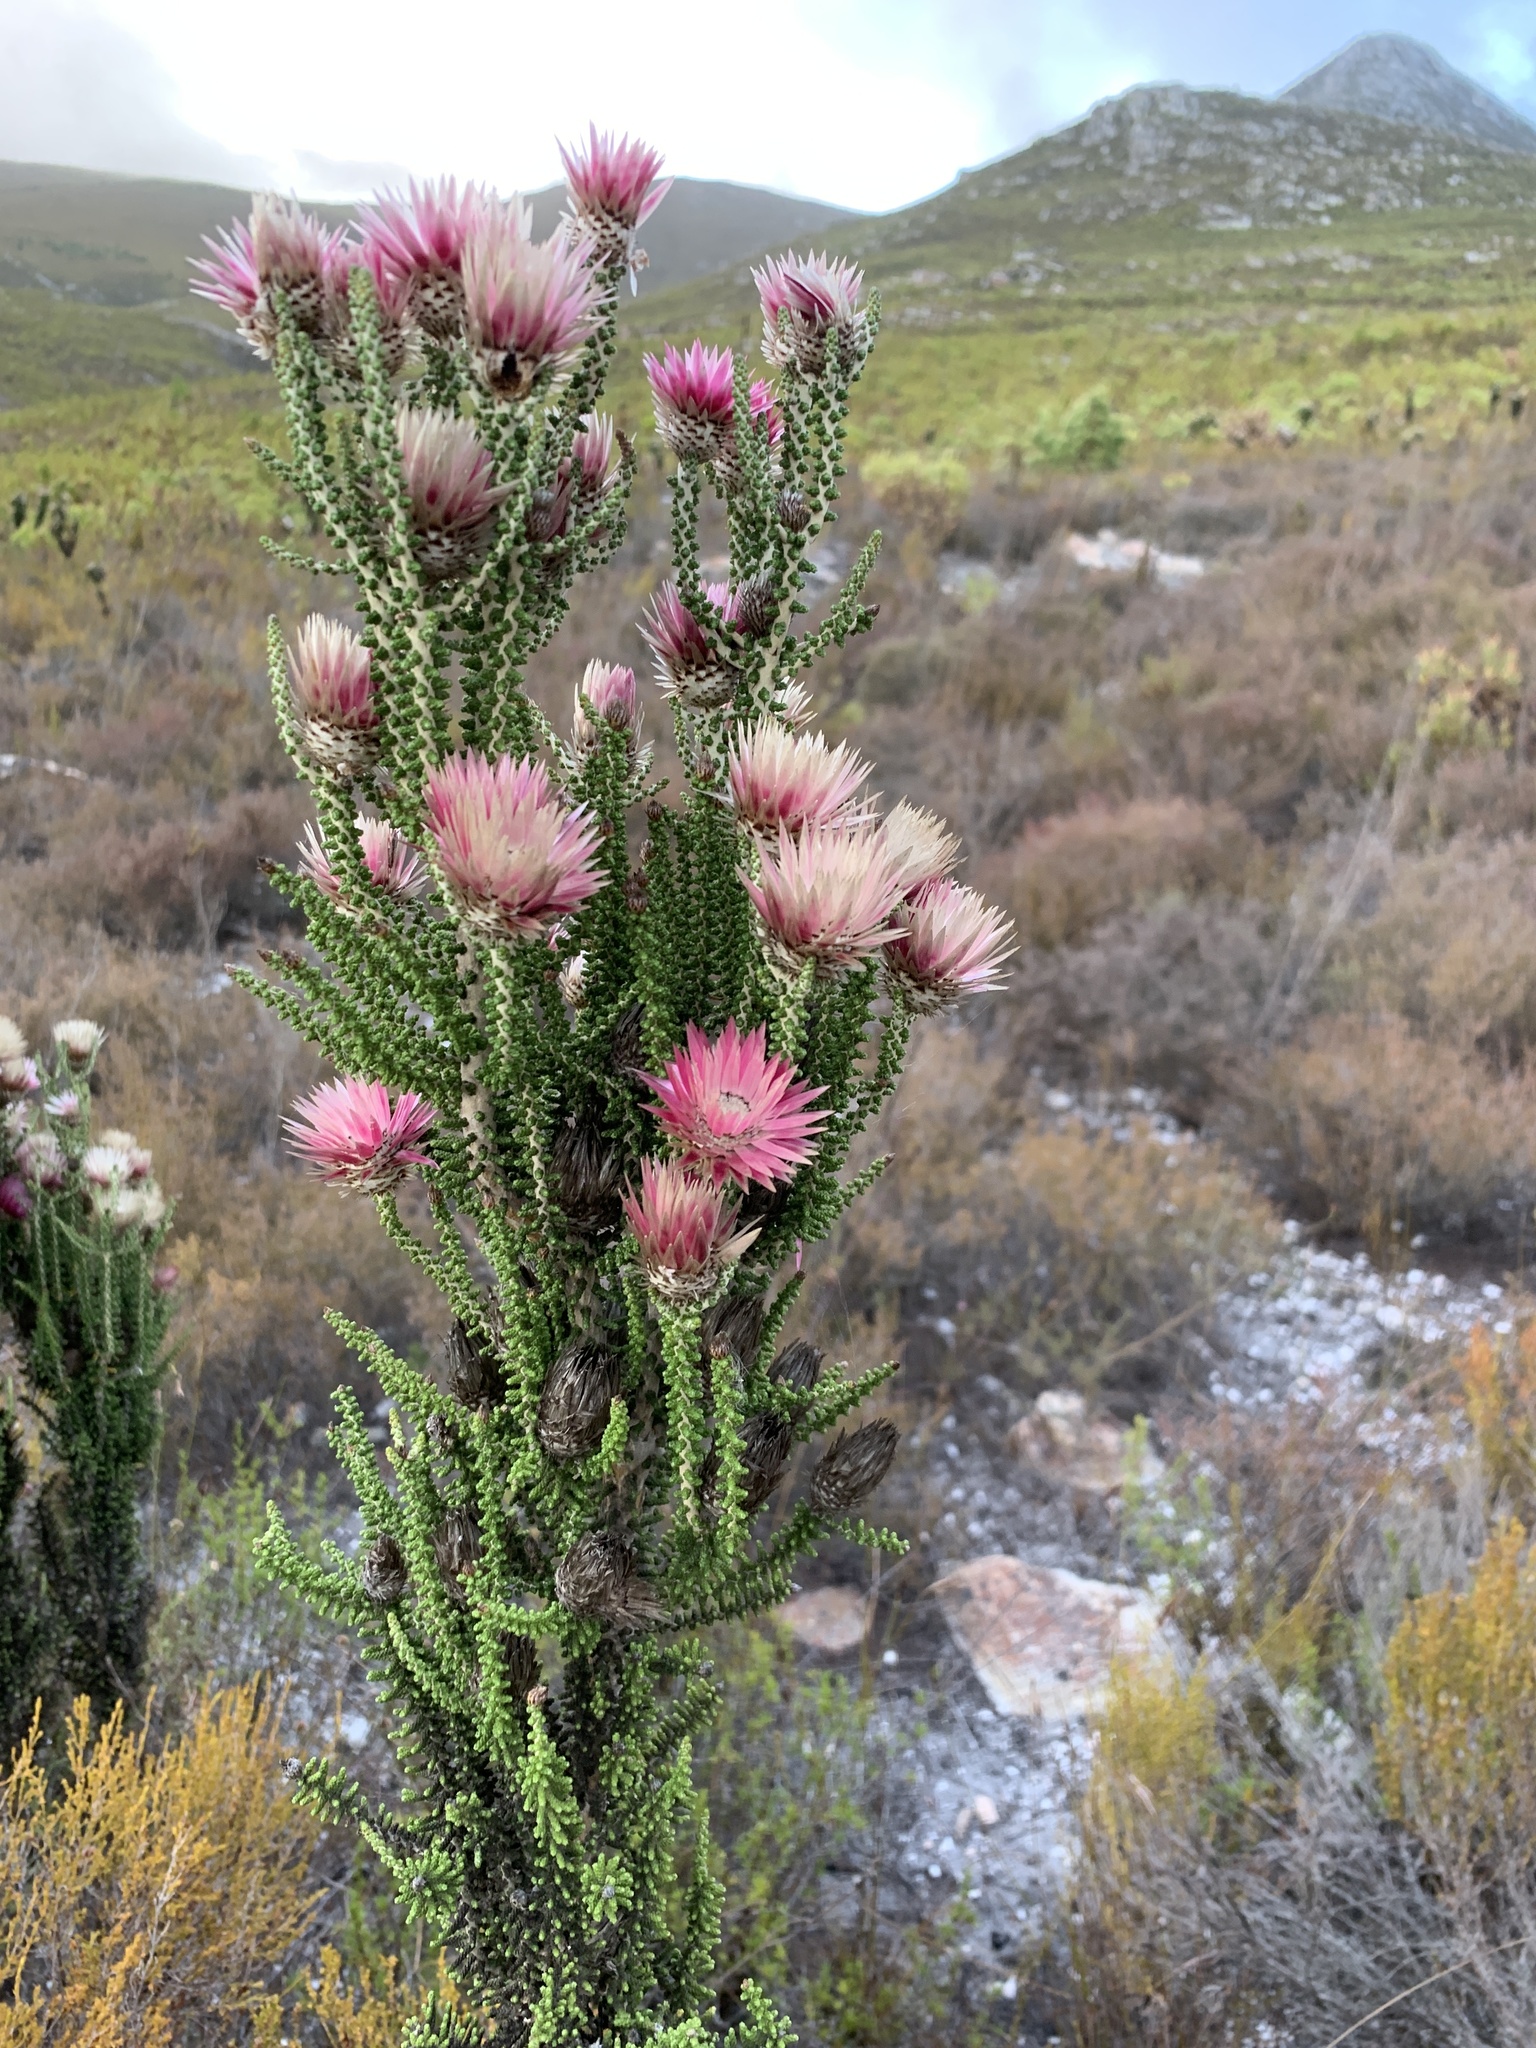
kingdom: Plantae
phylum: Tracheophyta
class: Magnoliopsida
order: Asterales
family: Asteraceae
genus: Phaenocoma
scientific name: Phaenocoma prolifera
